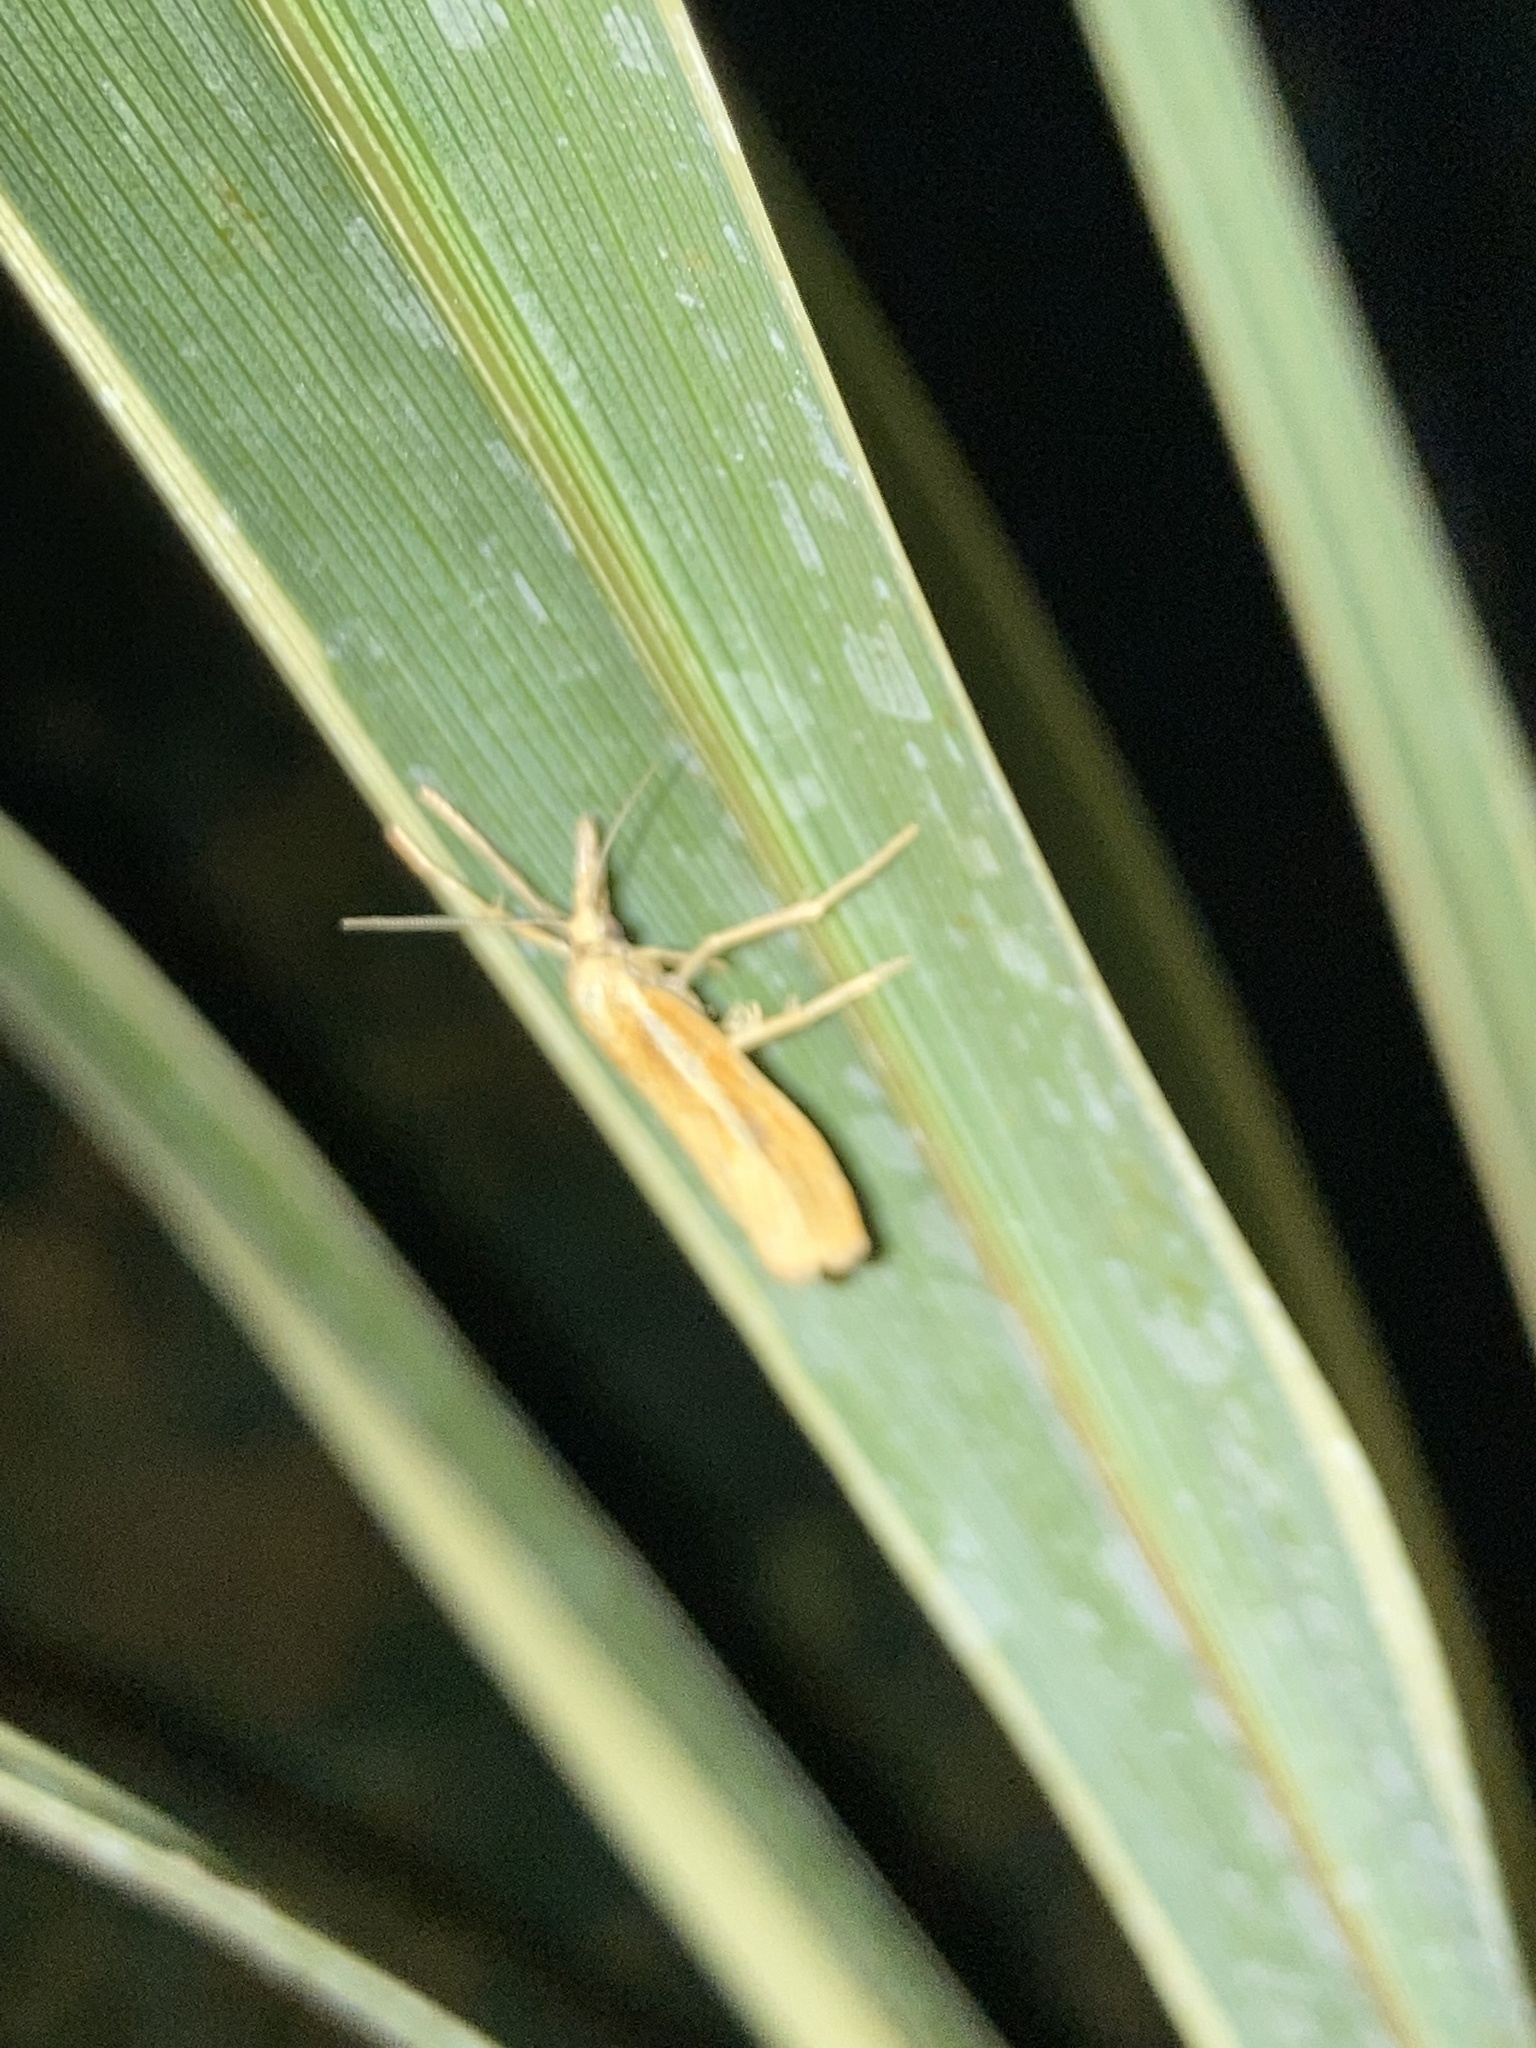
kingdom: Animalia
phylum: Arthropoda
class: Insecta
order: Lepidoptera
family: Crambidae
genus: Agriphila
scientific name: Agriphila tristellus
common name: Common grass-veneer
